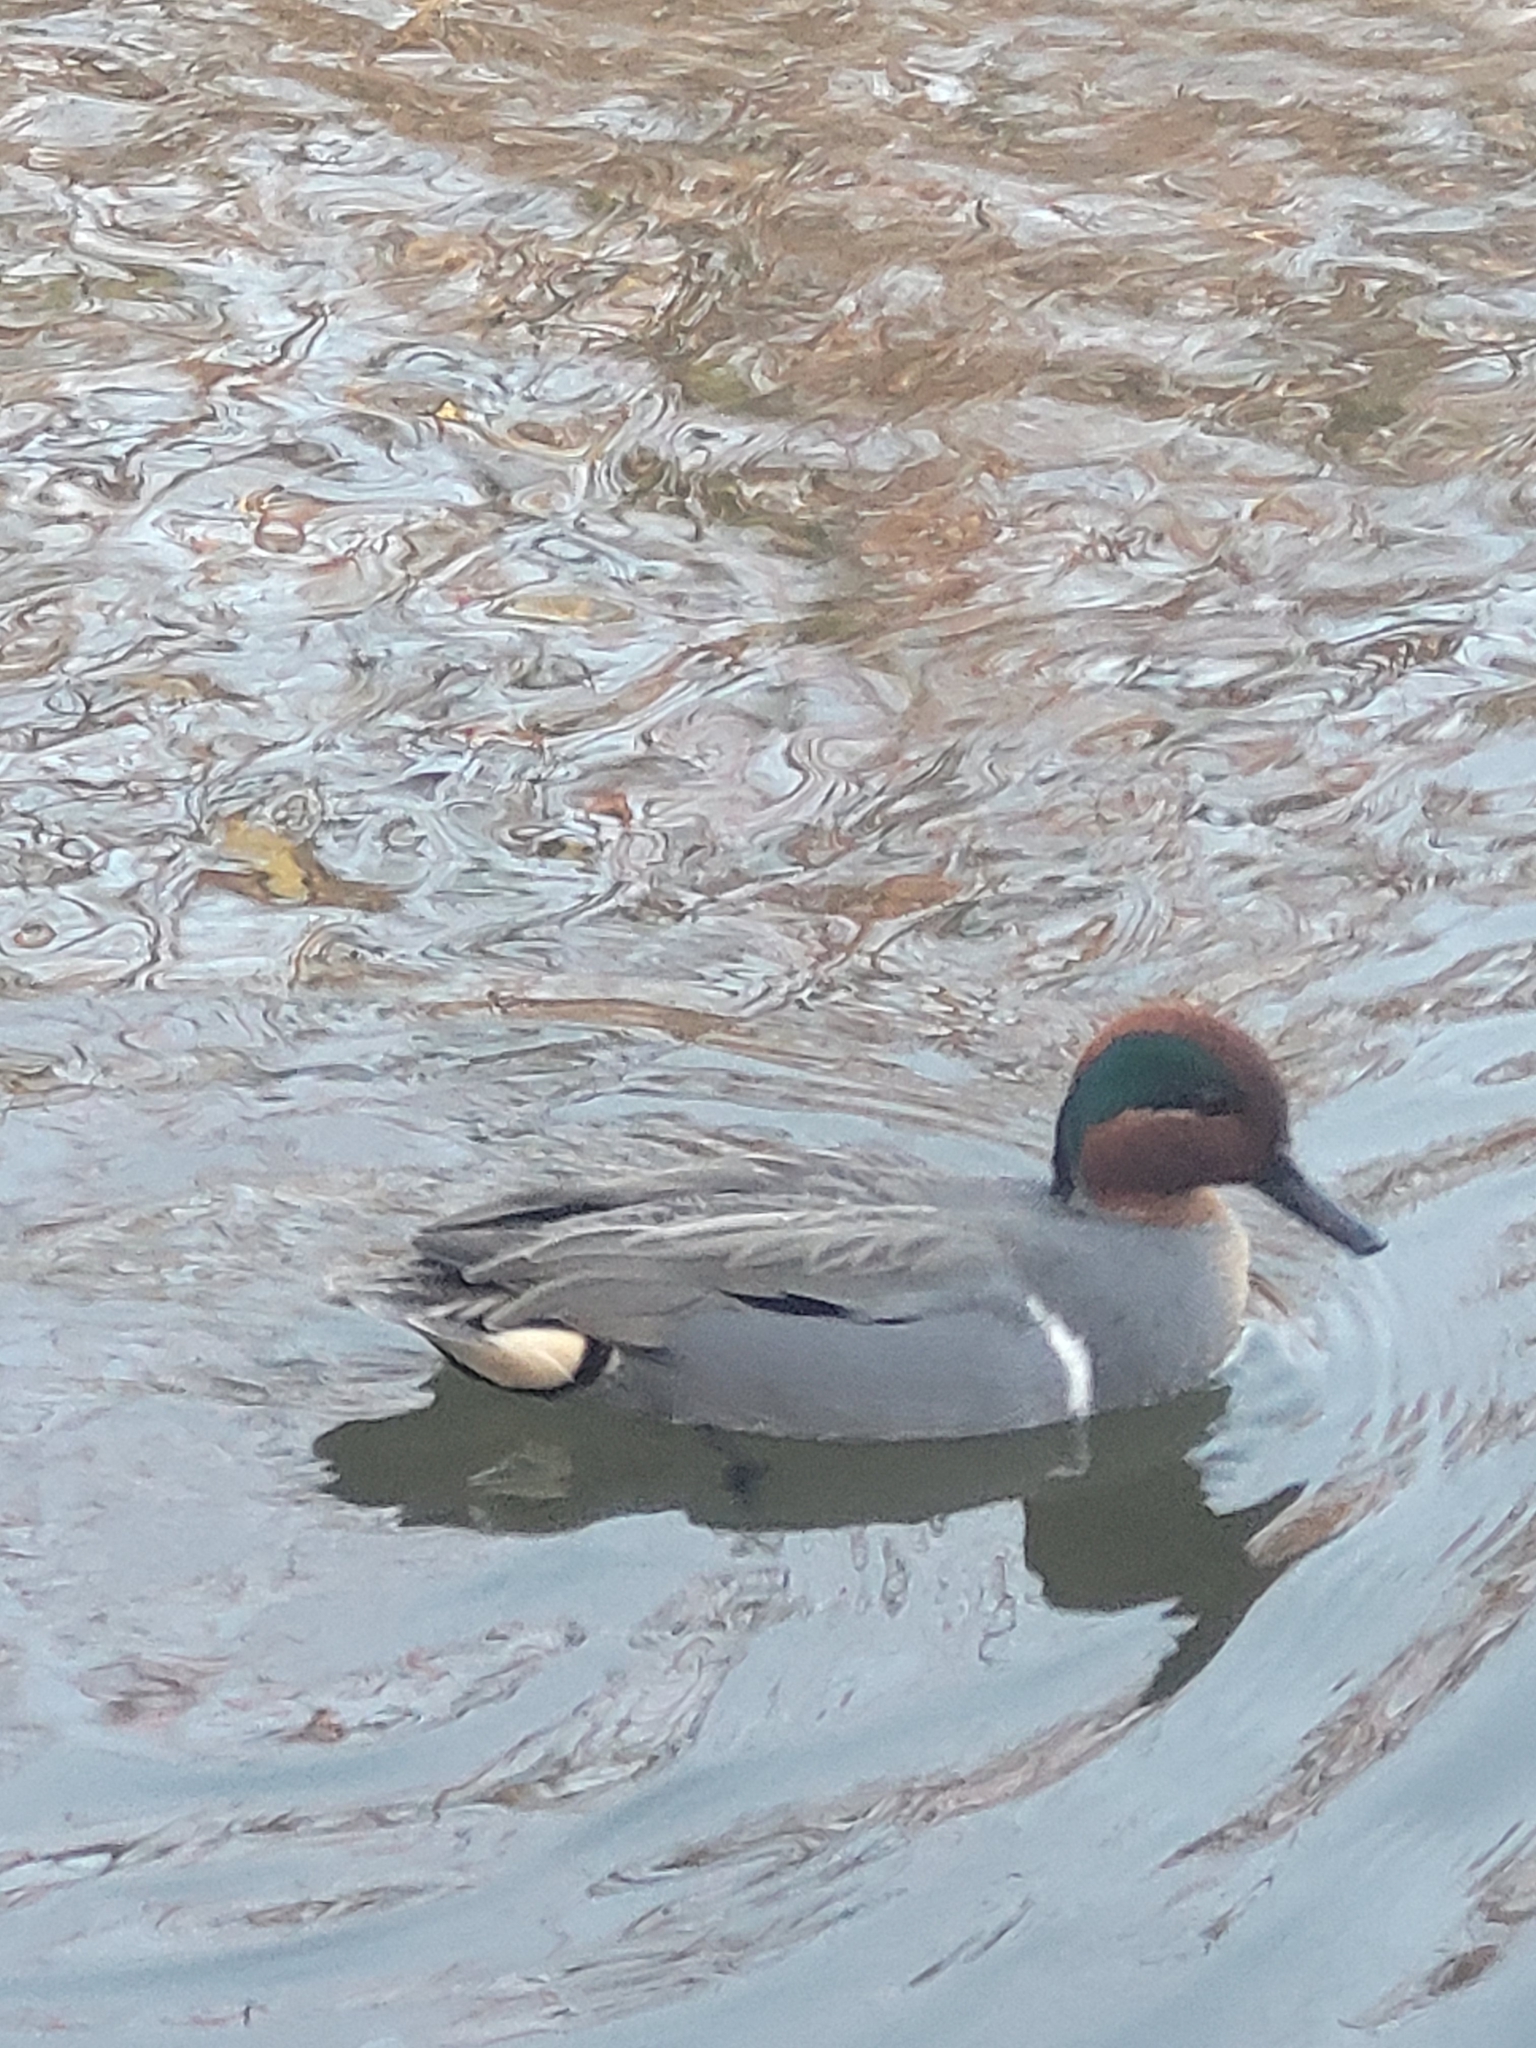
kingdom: Animalia
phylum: Chordata
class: Aves
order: Anseriformes
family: Anatidae
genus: Anas
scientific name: Anas carolinensis
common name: Green-winged teal
